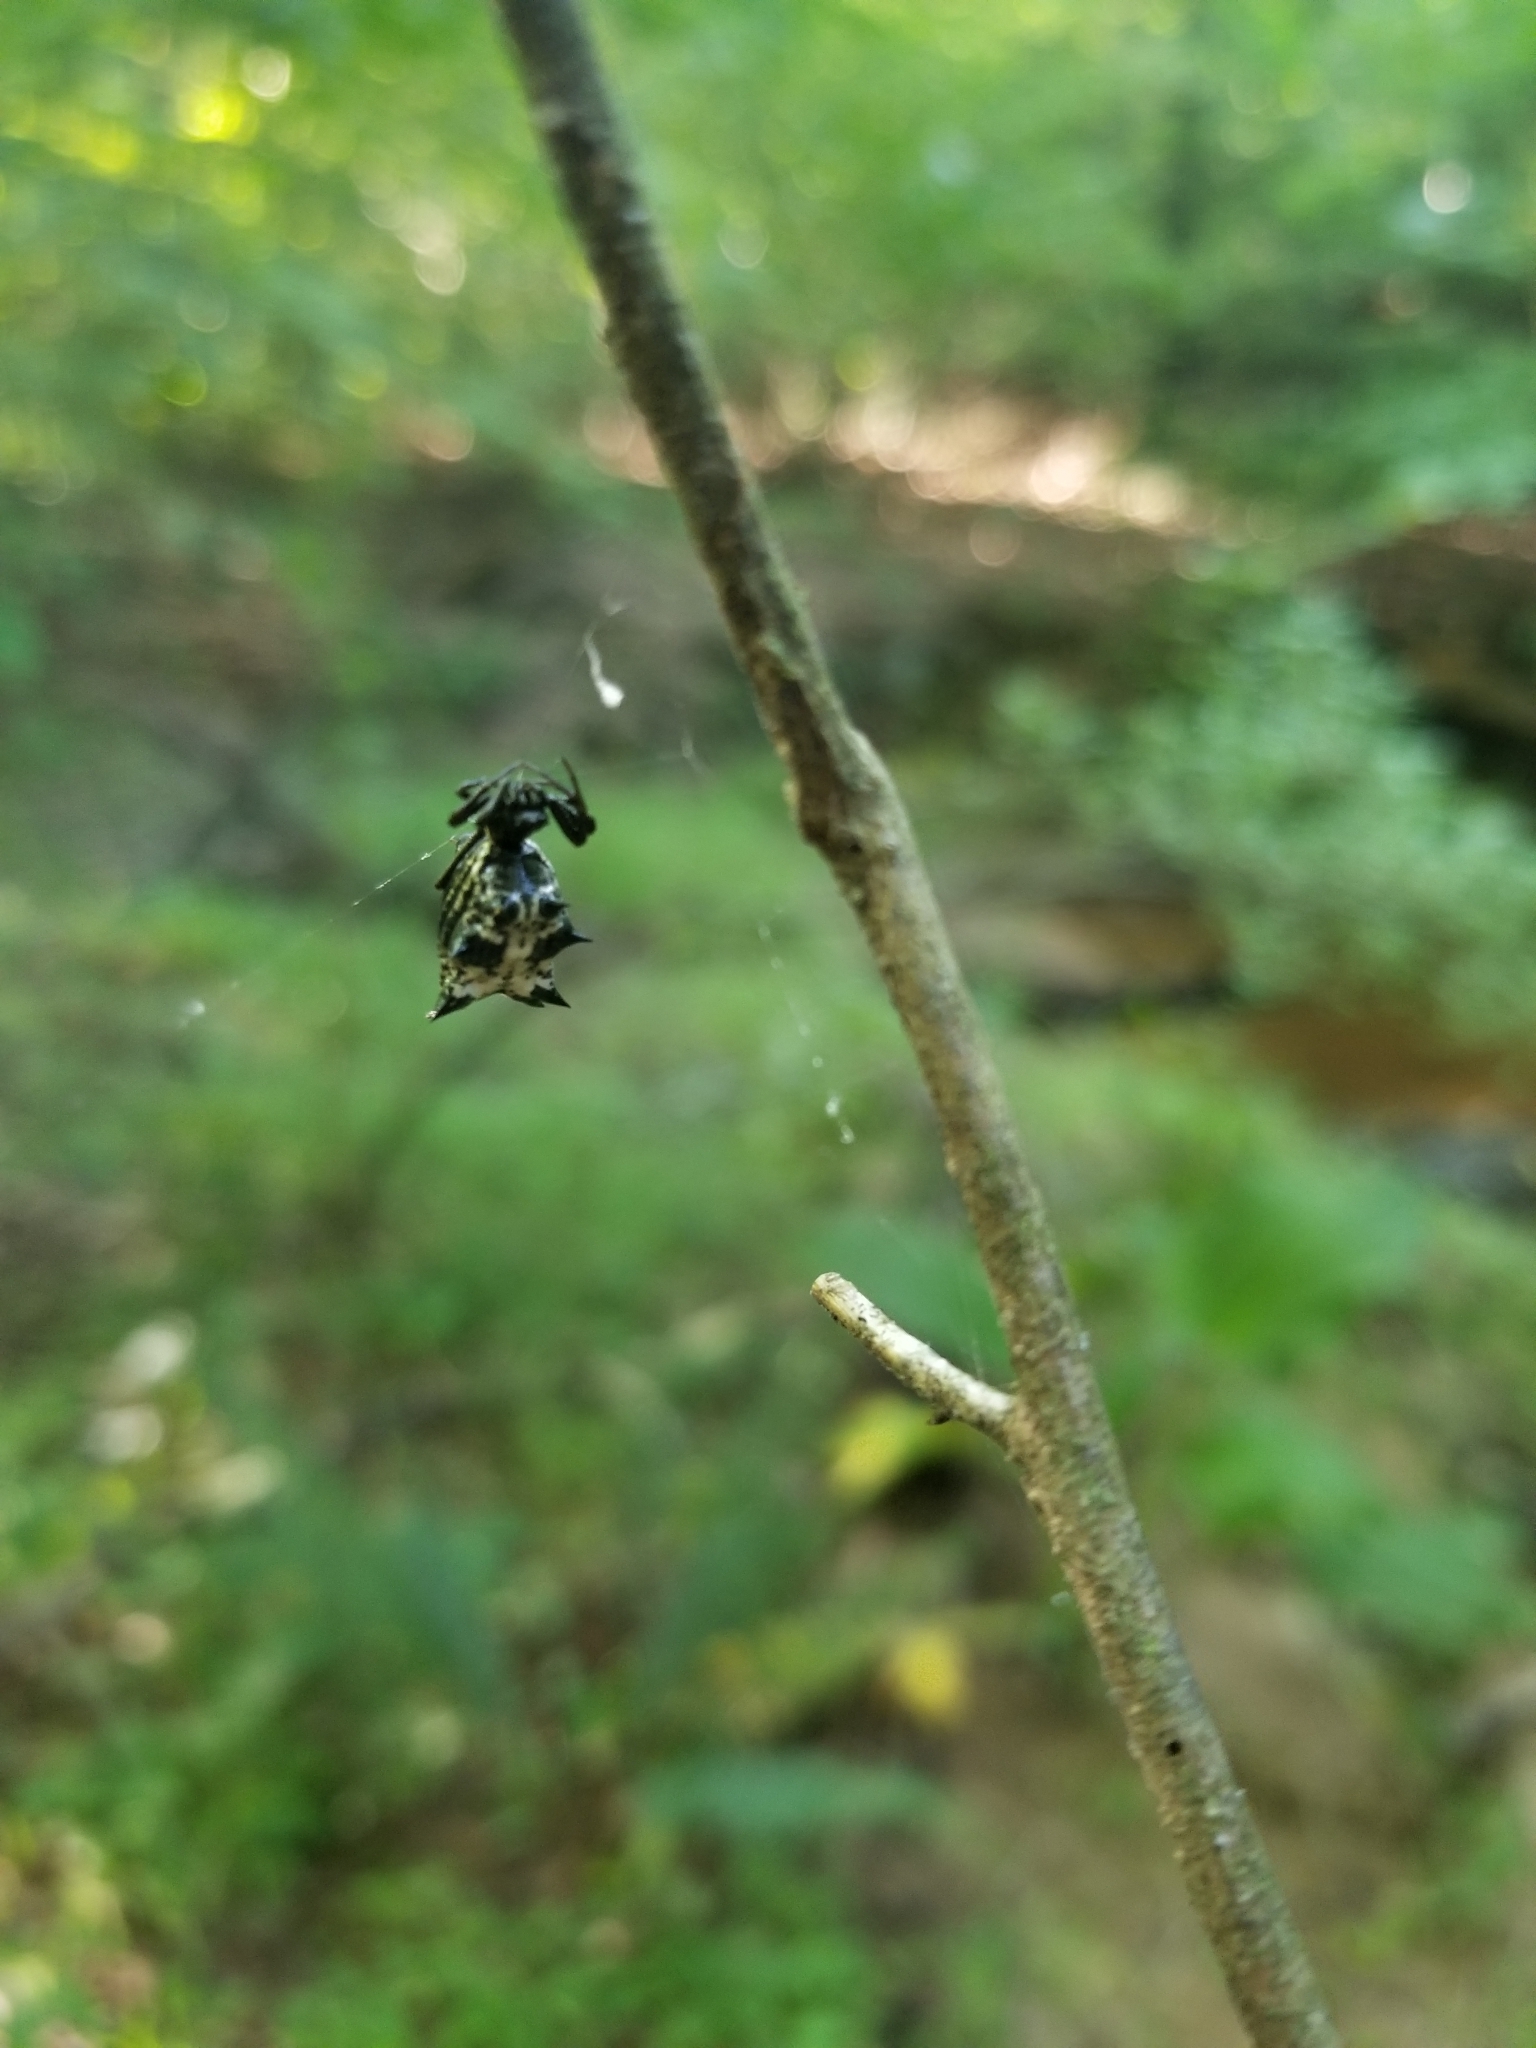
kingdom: Animalia
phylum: Arthropoda
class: Arachnida
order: Araneae
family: Araneidae
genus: Micrathena
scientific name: Micrathena gracilis
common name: Orb weavers
